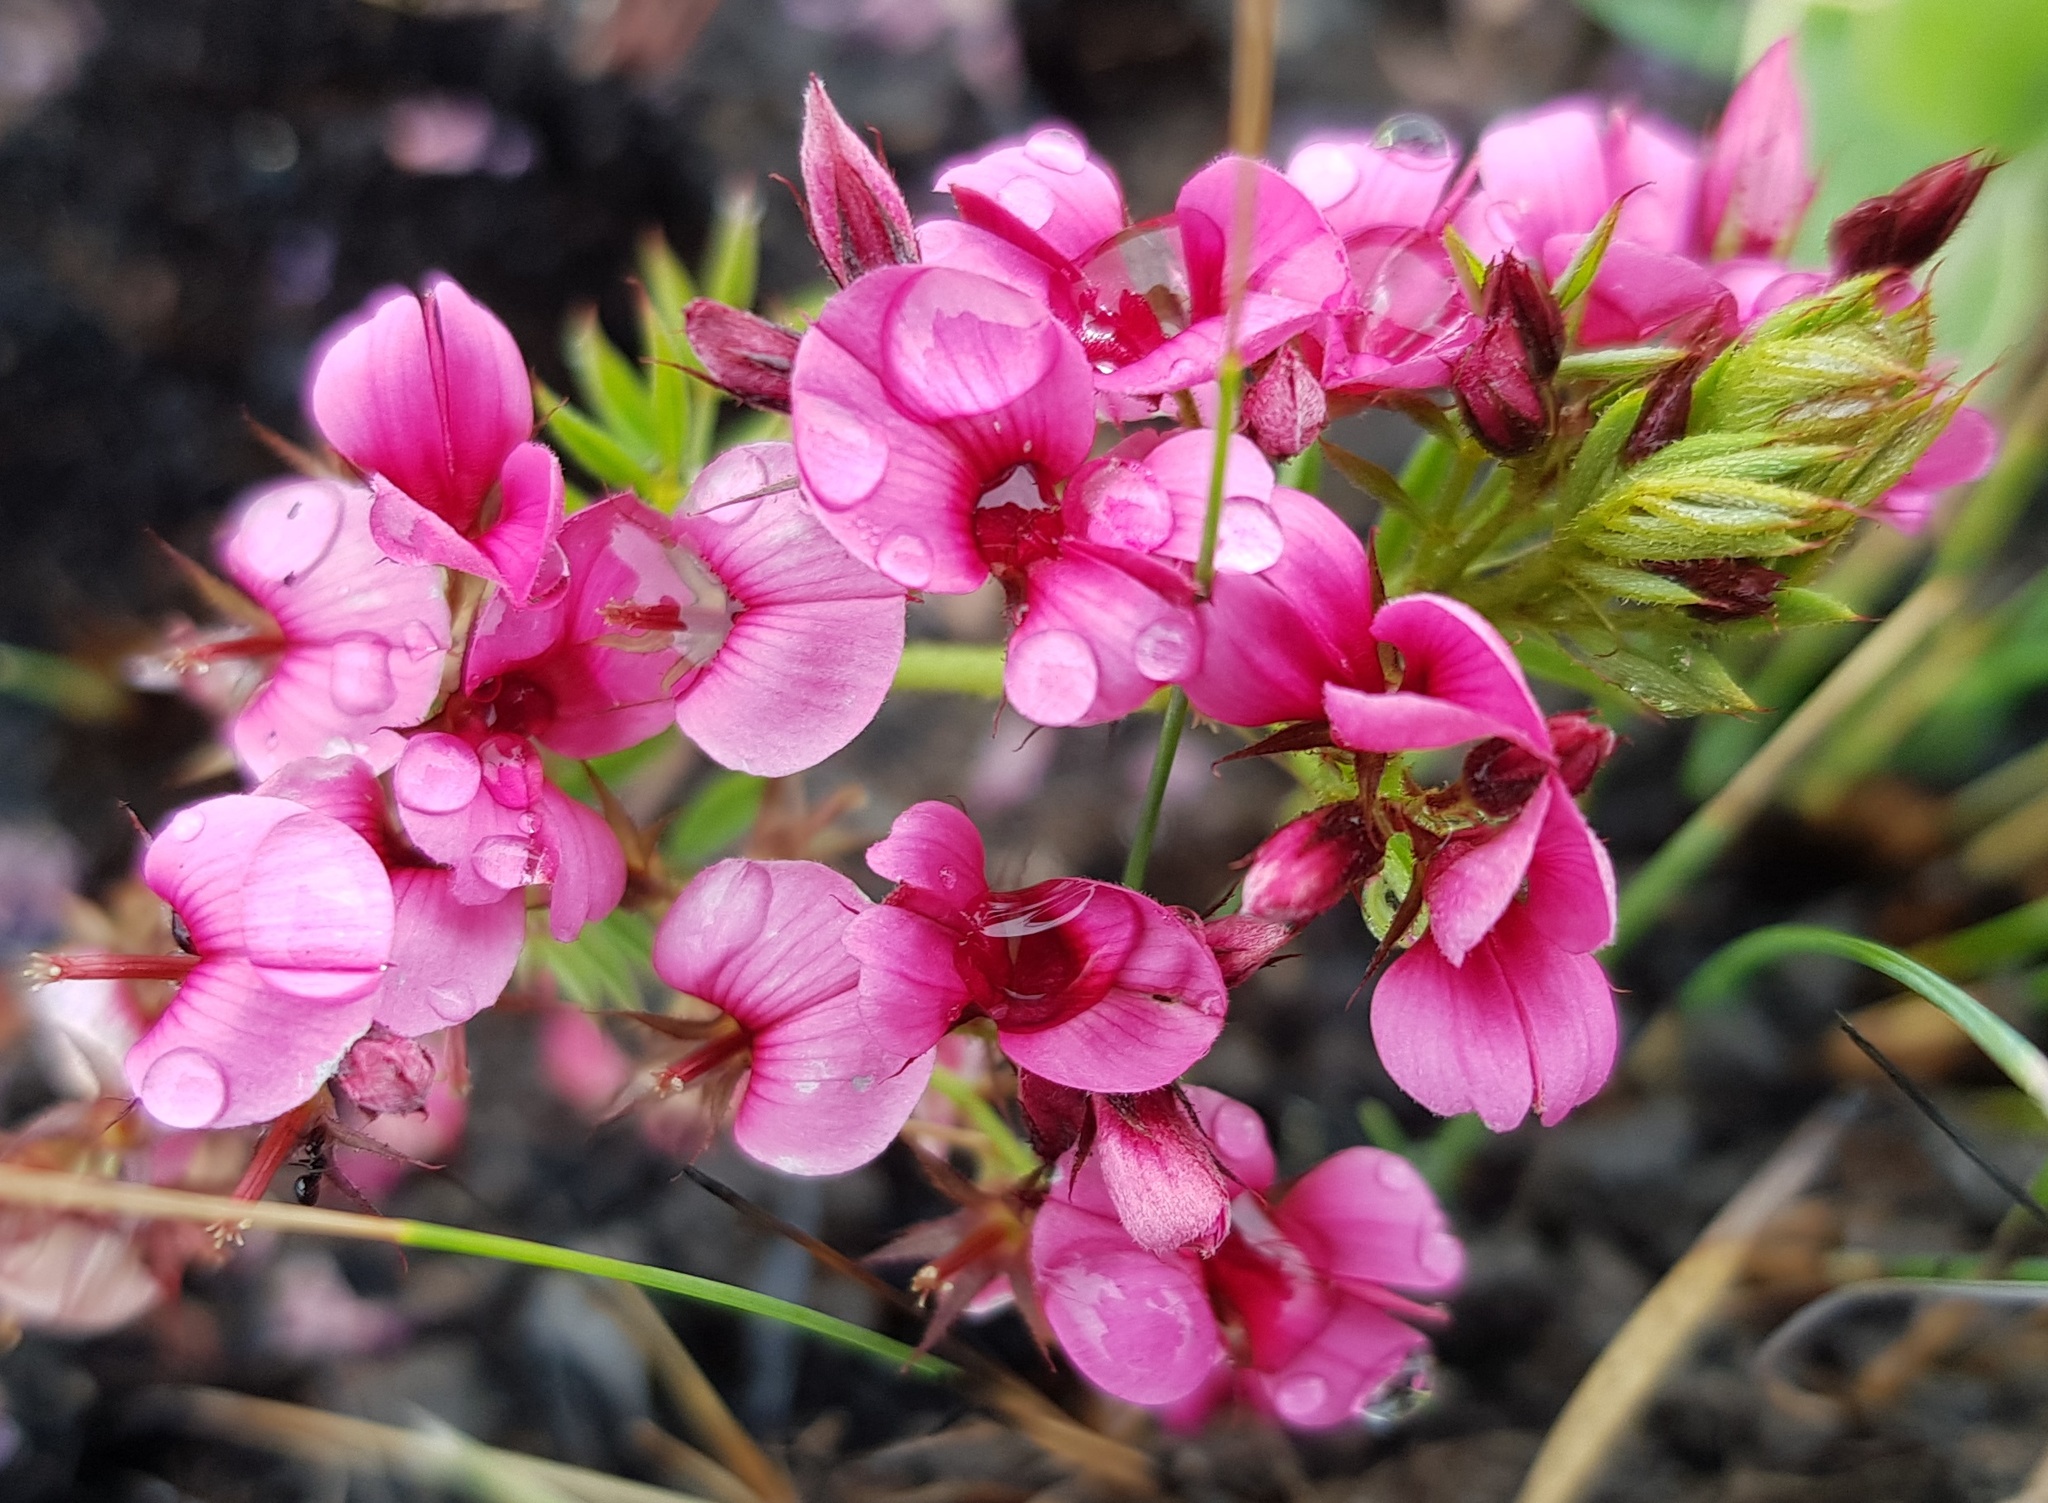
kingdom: Plantae
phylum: Tracheophyta
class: Magnoliopsida
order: Fabales
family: Fabaceae
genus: Indigofera
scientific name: Indigofera rubroglandulosa
